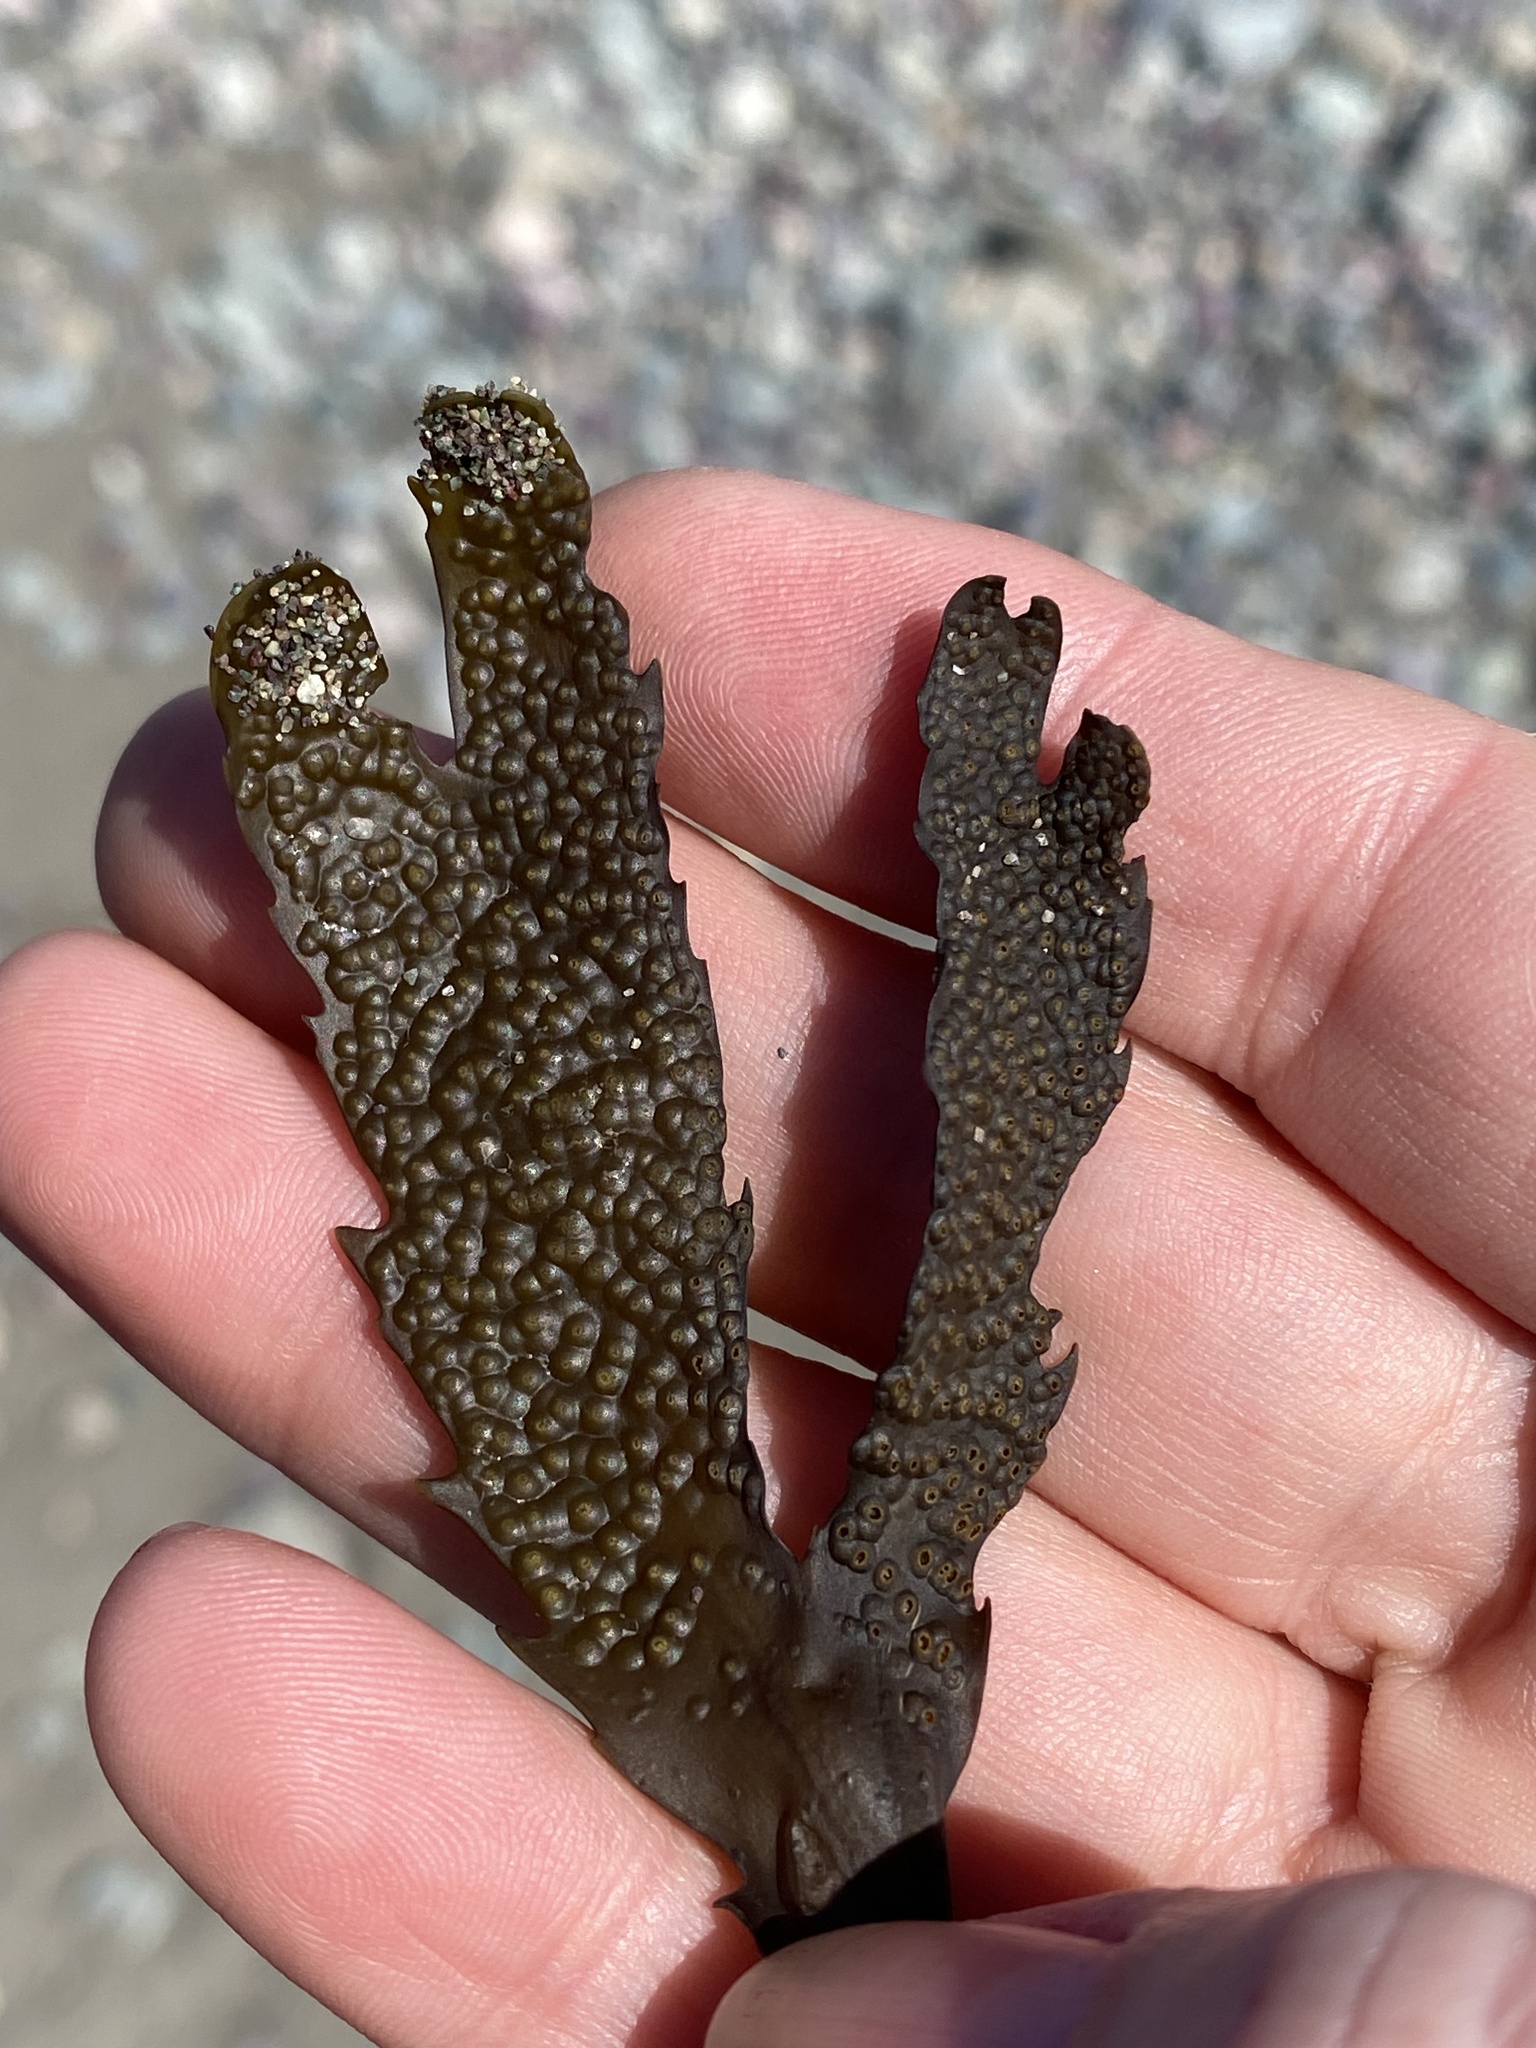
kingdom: Chromista
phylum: Ochrophyta
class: Phaeophyceae
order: Fucales
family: Fucaceae
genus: Fucus
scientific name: Fucus serratus
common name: Toothed wrack
